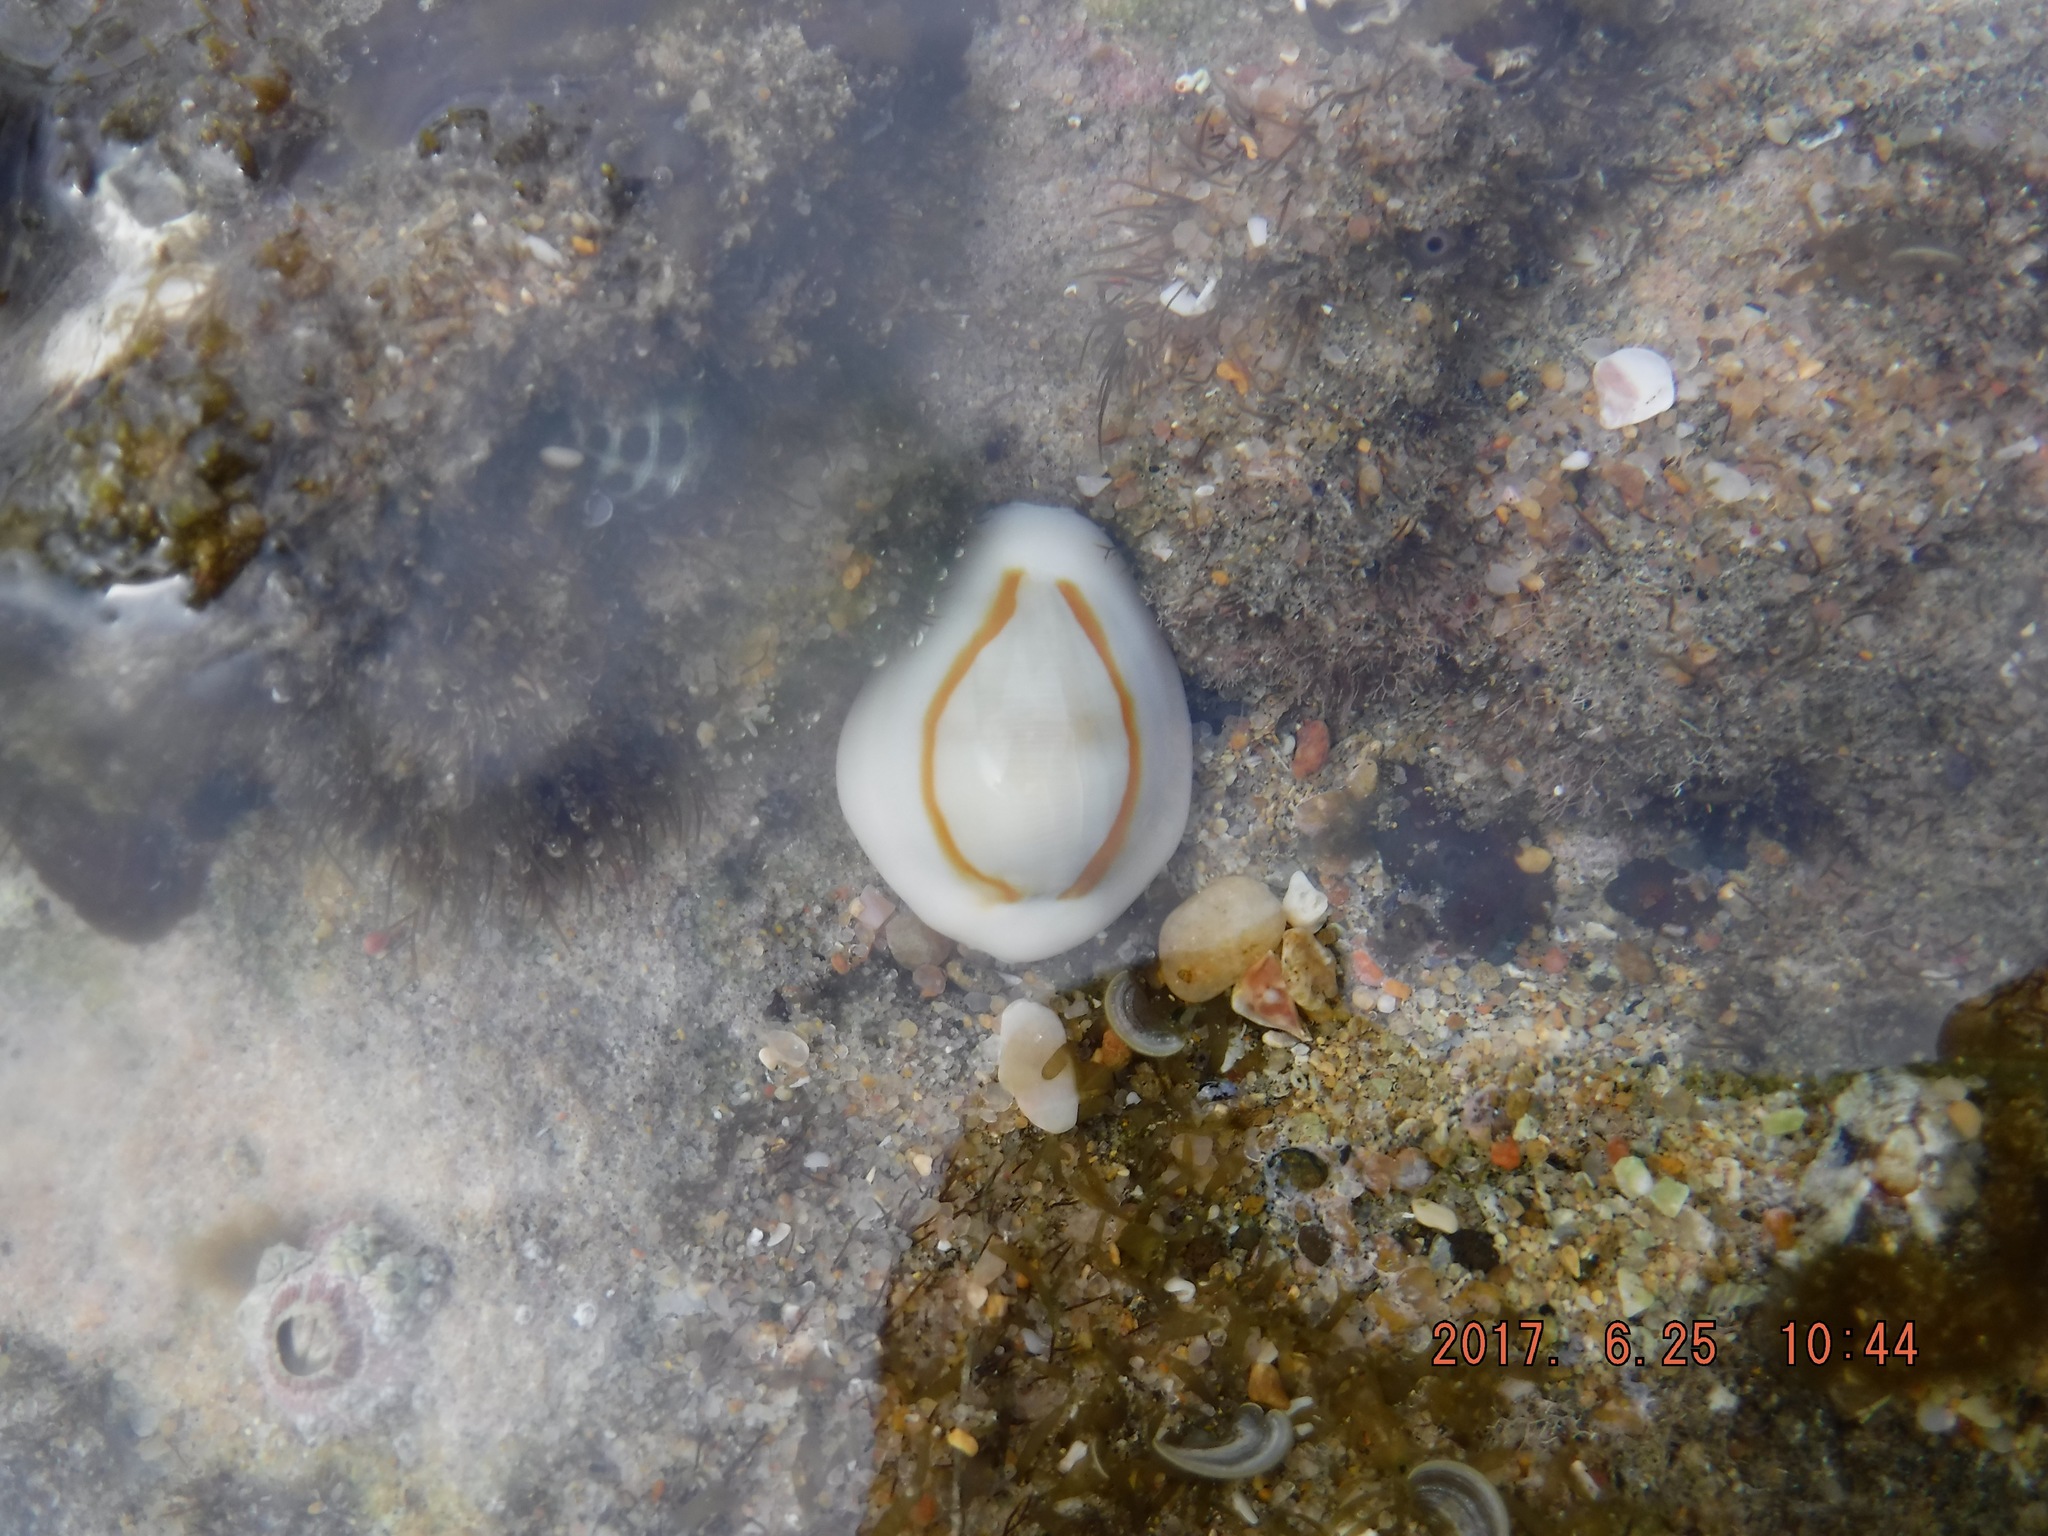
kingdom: Animalia
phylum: Mollusca
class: Gastropoda
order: Littorinimorpha
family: Cypraeidae
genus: Monetaria
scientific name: Monetaria annulus
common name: Ring cowrie
